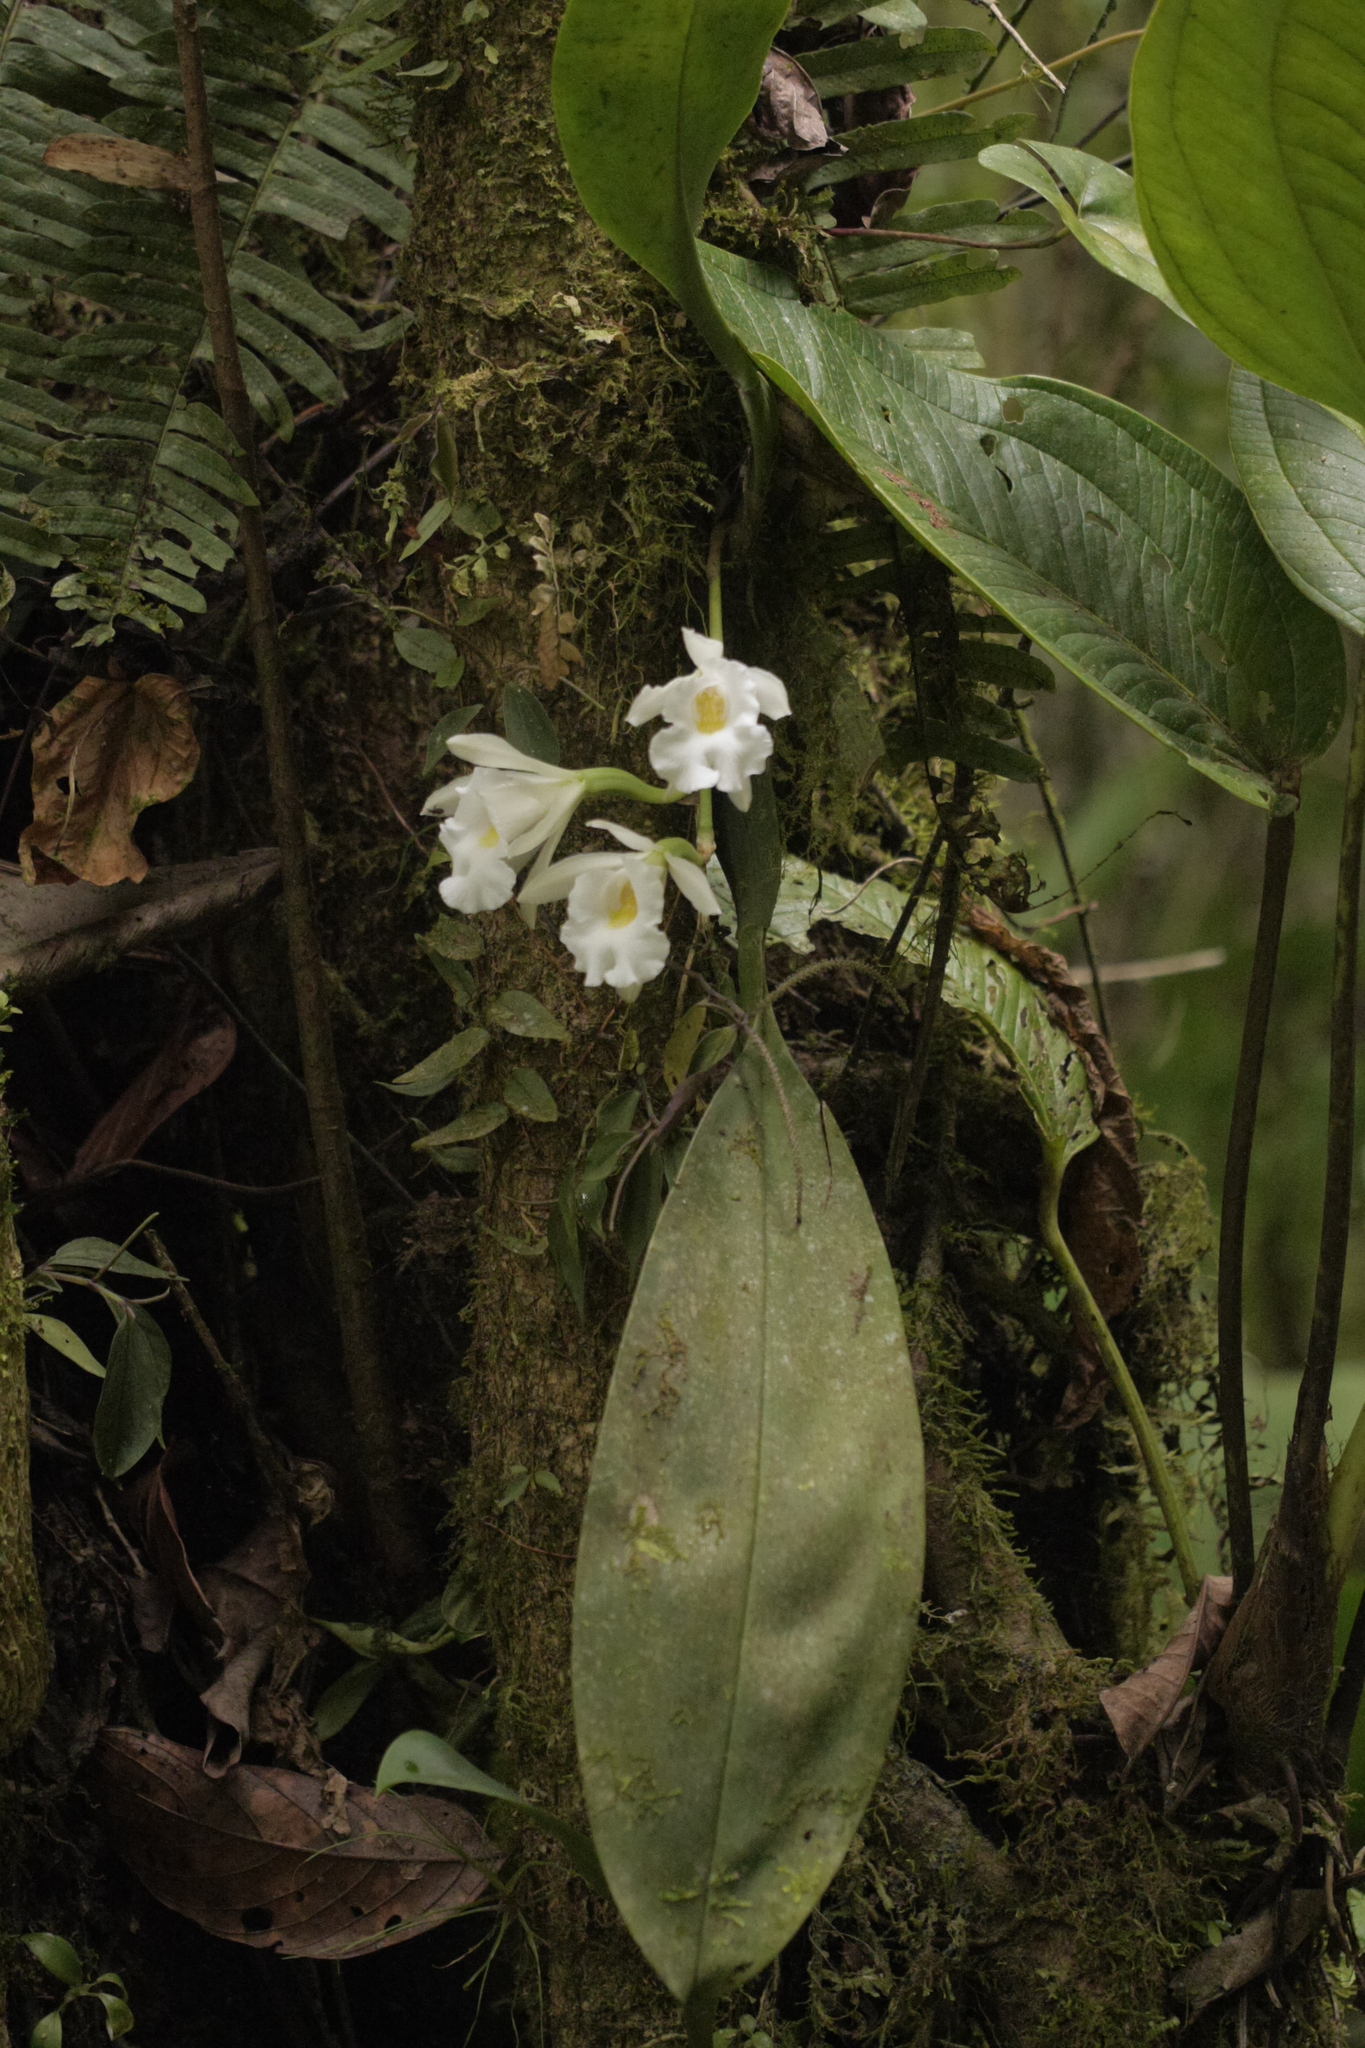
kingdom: Plantae
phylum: Tracheophyta
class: Liliopsida
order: Asparagales
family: Orchidaceae
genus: Trichopilia
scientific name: Trichopilia hennisiana
